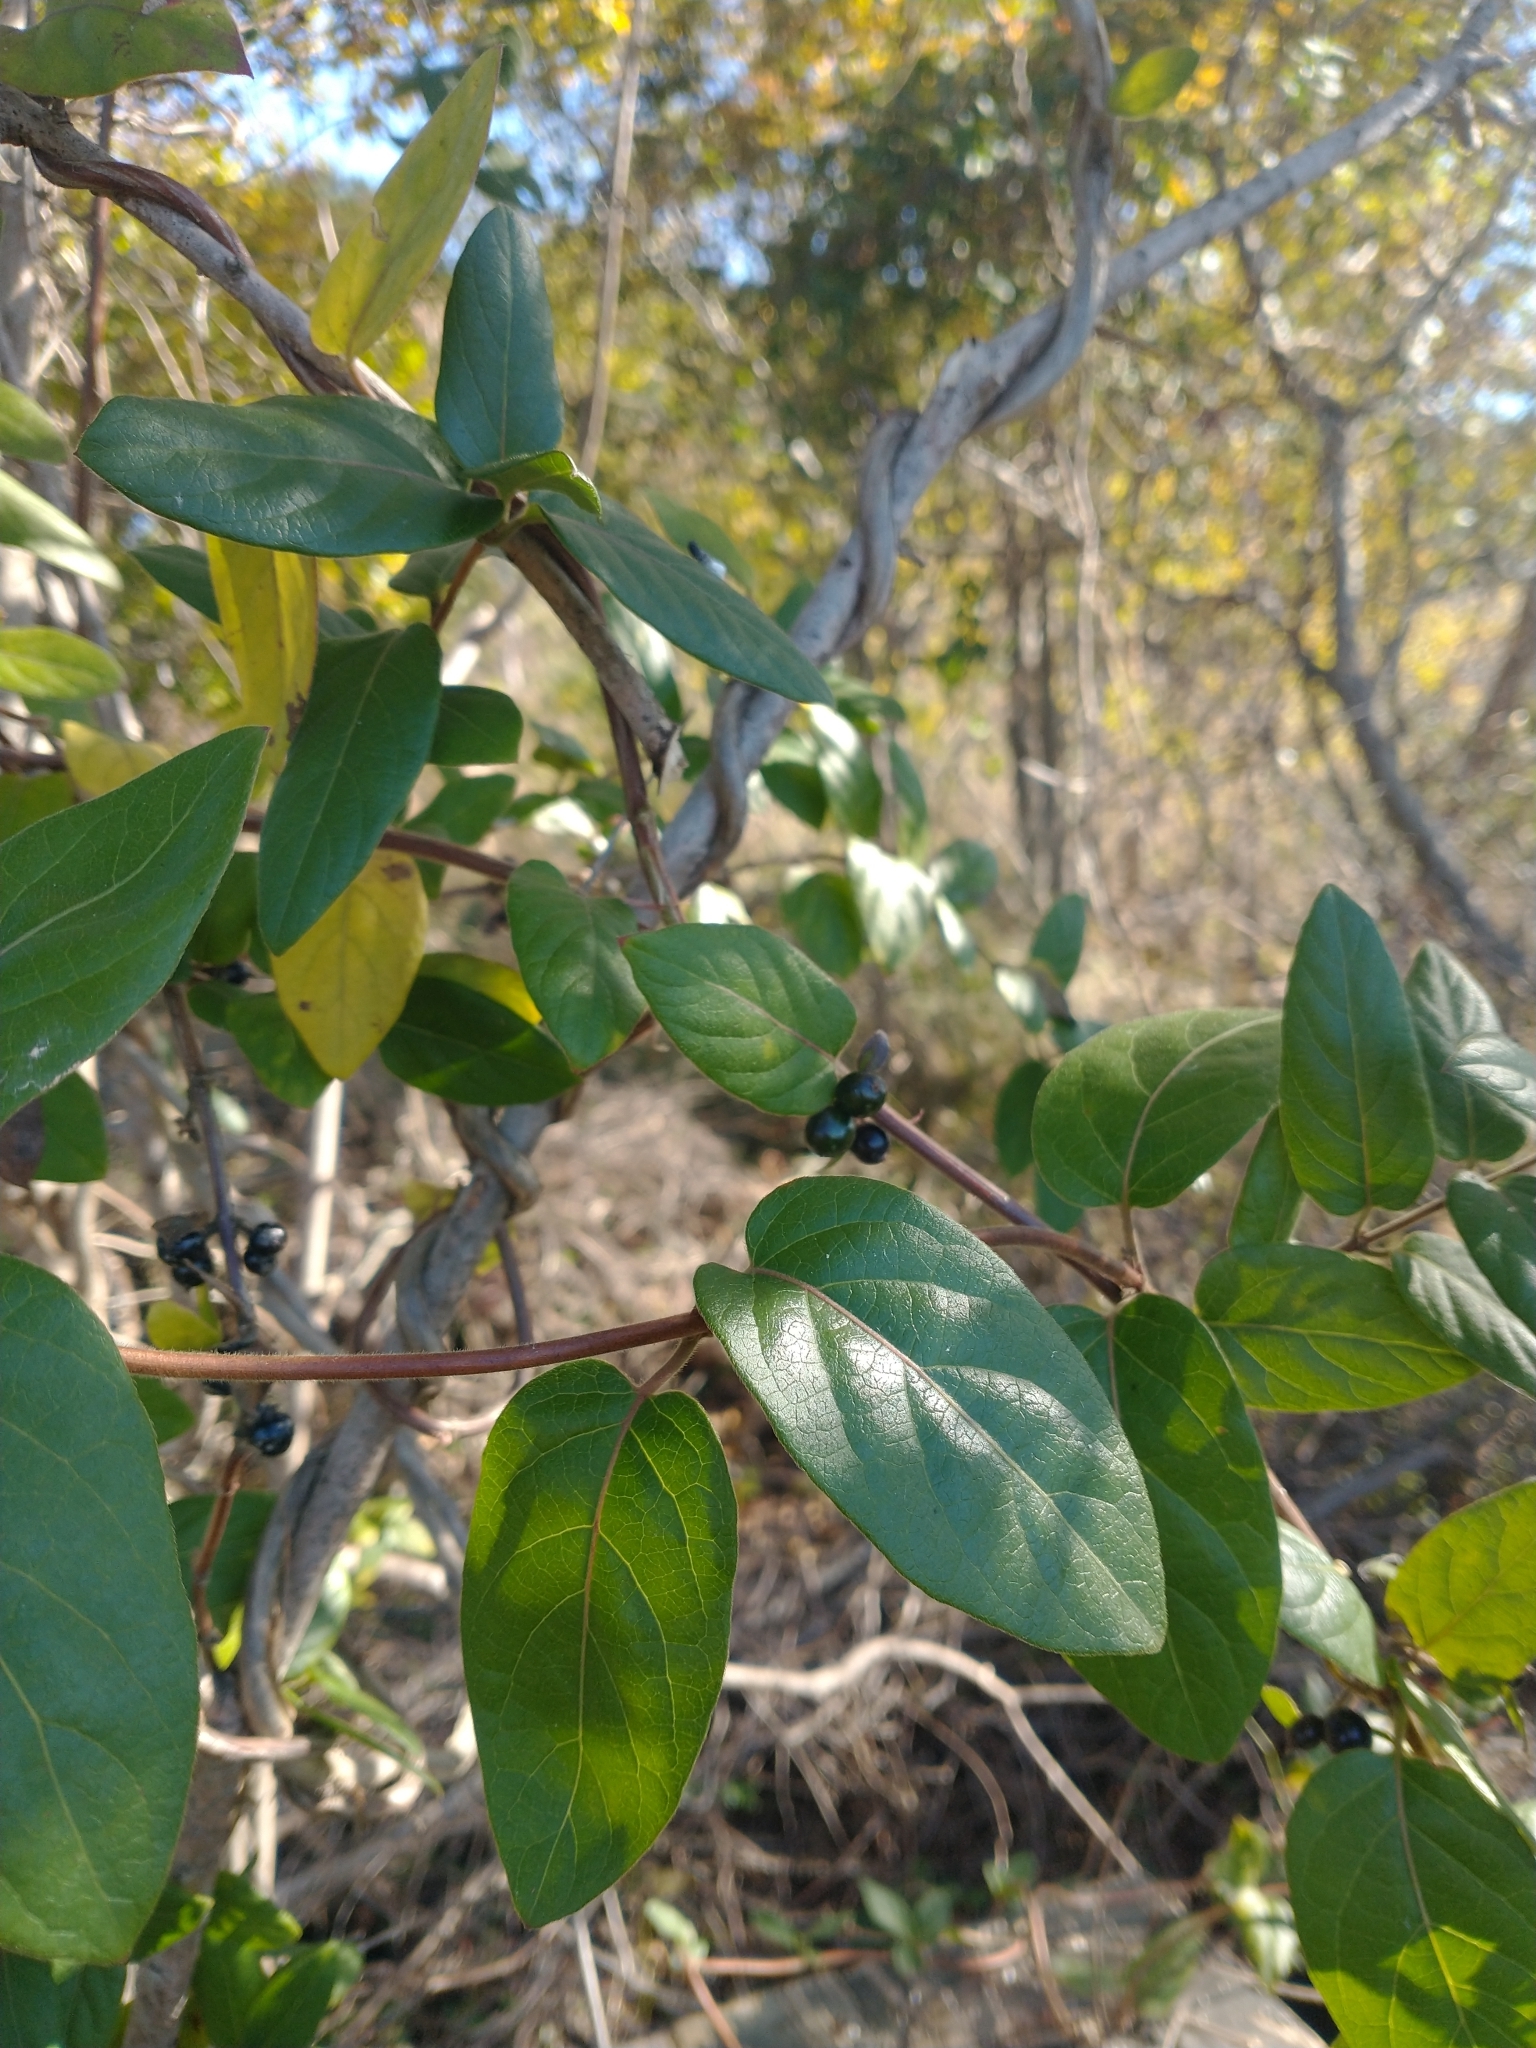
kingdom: Plantae
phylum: Tracheophyta
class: Magnoliopsida
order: Dipsacales
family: Caprifoliaceae
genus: Lonicera
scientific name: Lonicera japonica
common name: Japanese honeysuckle
